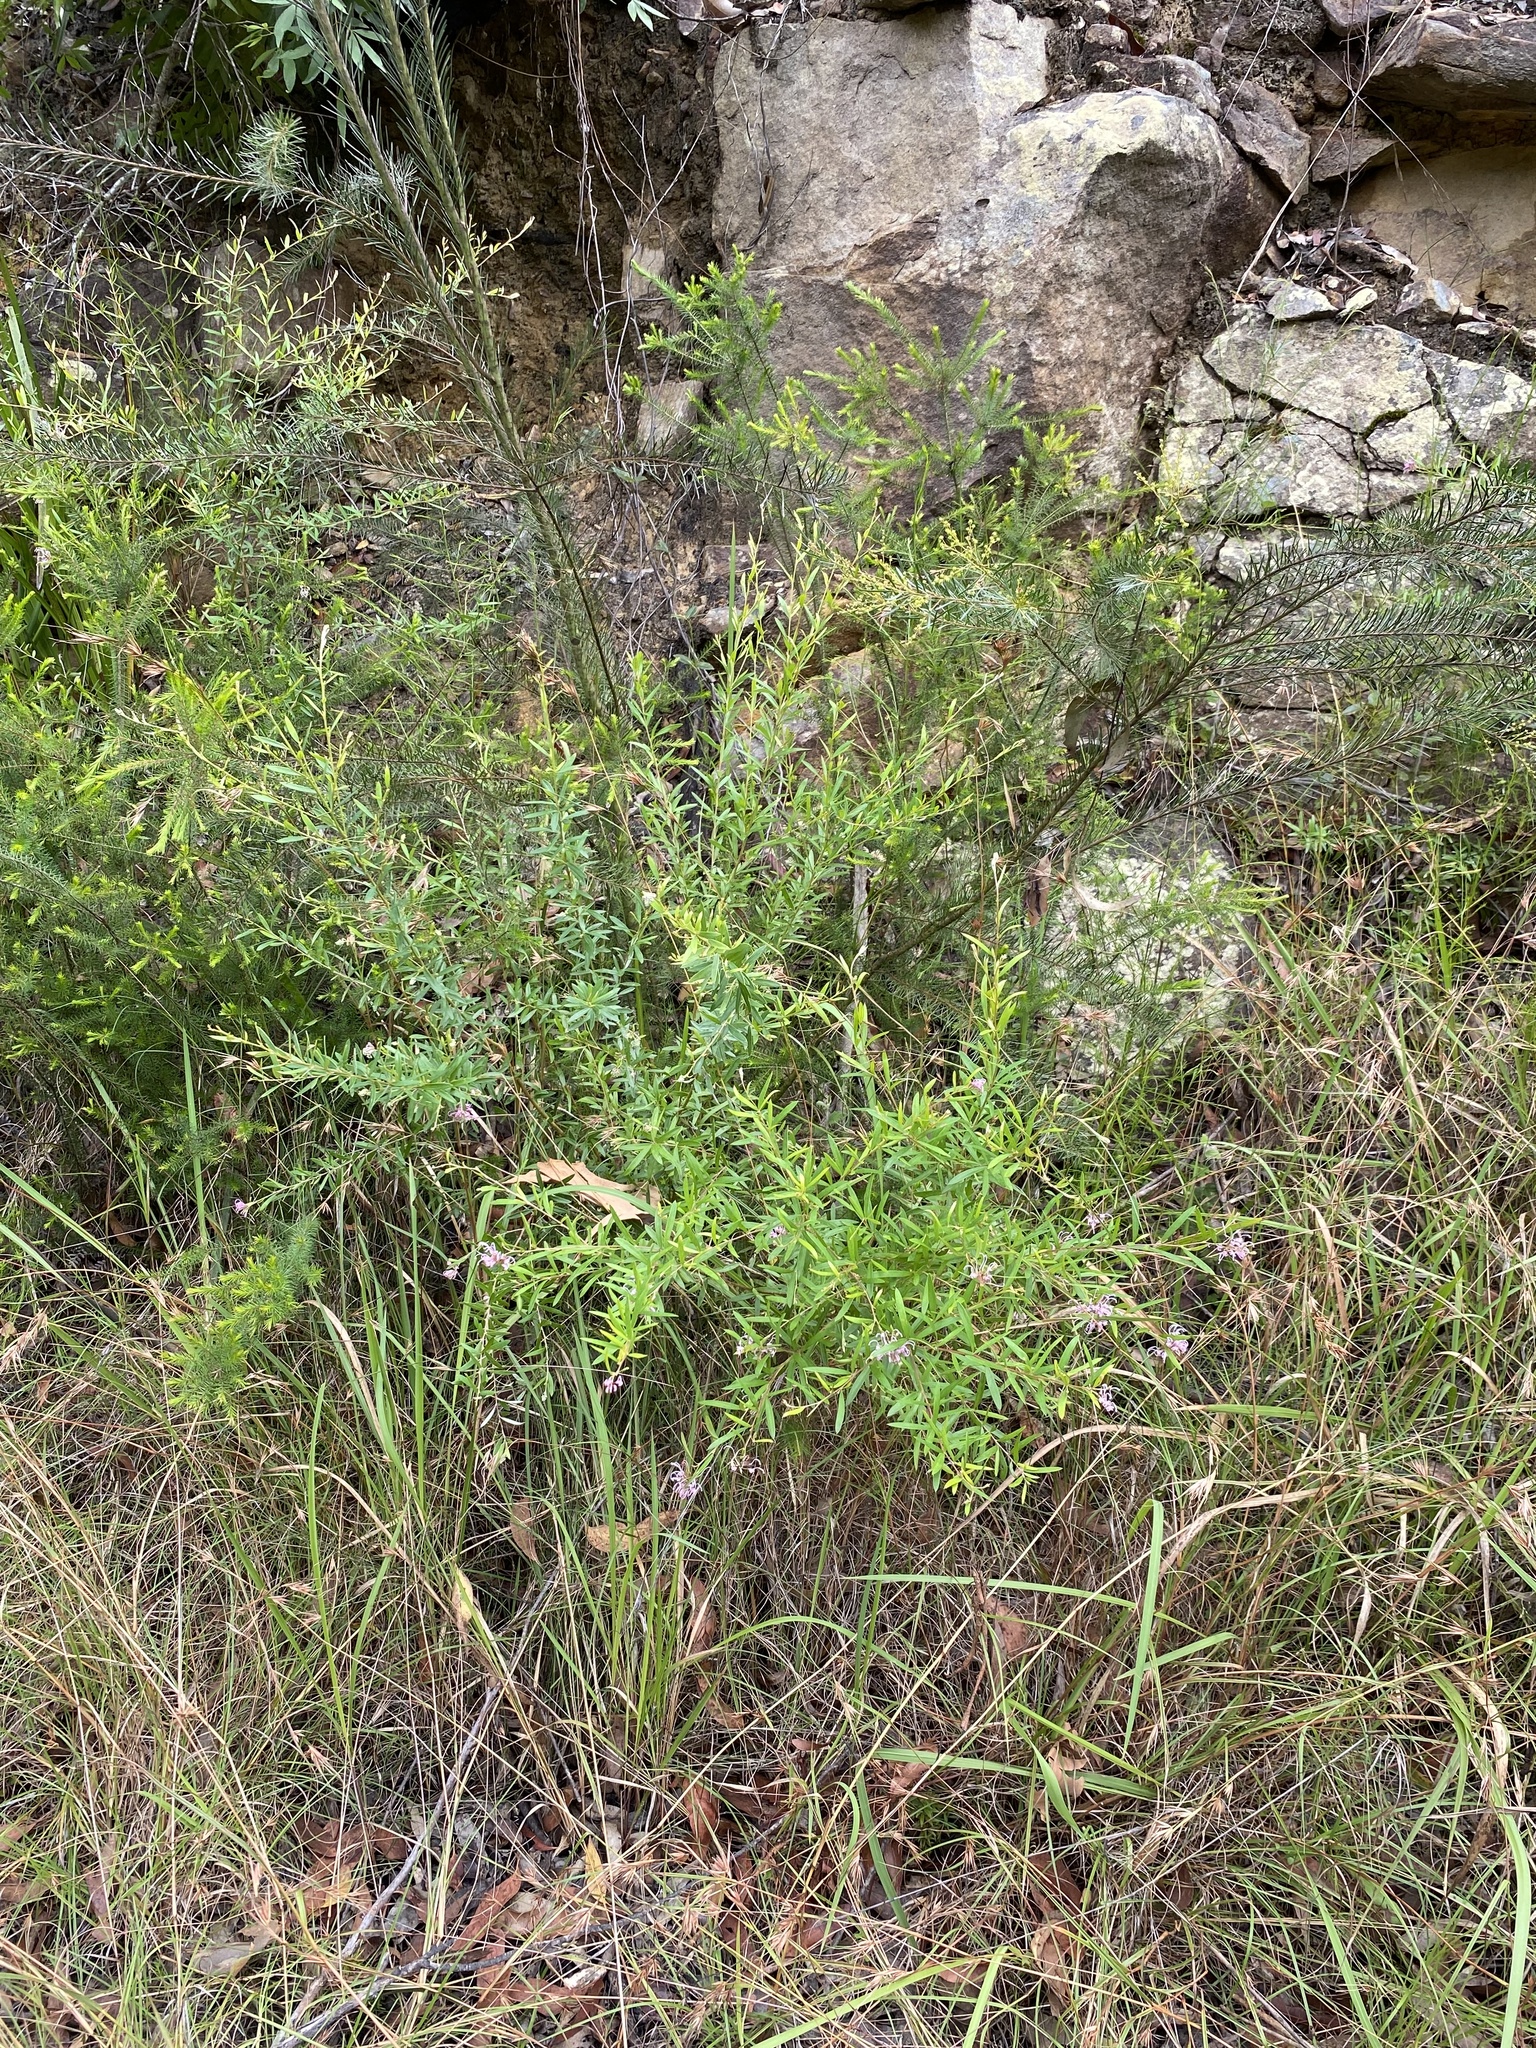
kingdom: Plantae
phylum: Tracheophyta
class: Magnoliopsida
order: Proteales
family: Proteaceae
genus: Grevillea
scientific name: Grevillea sericea
